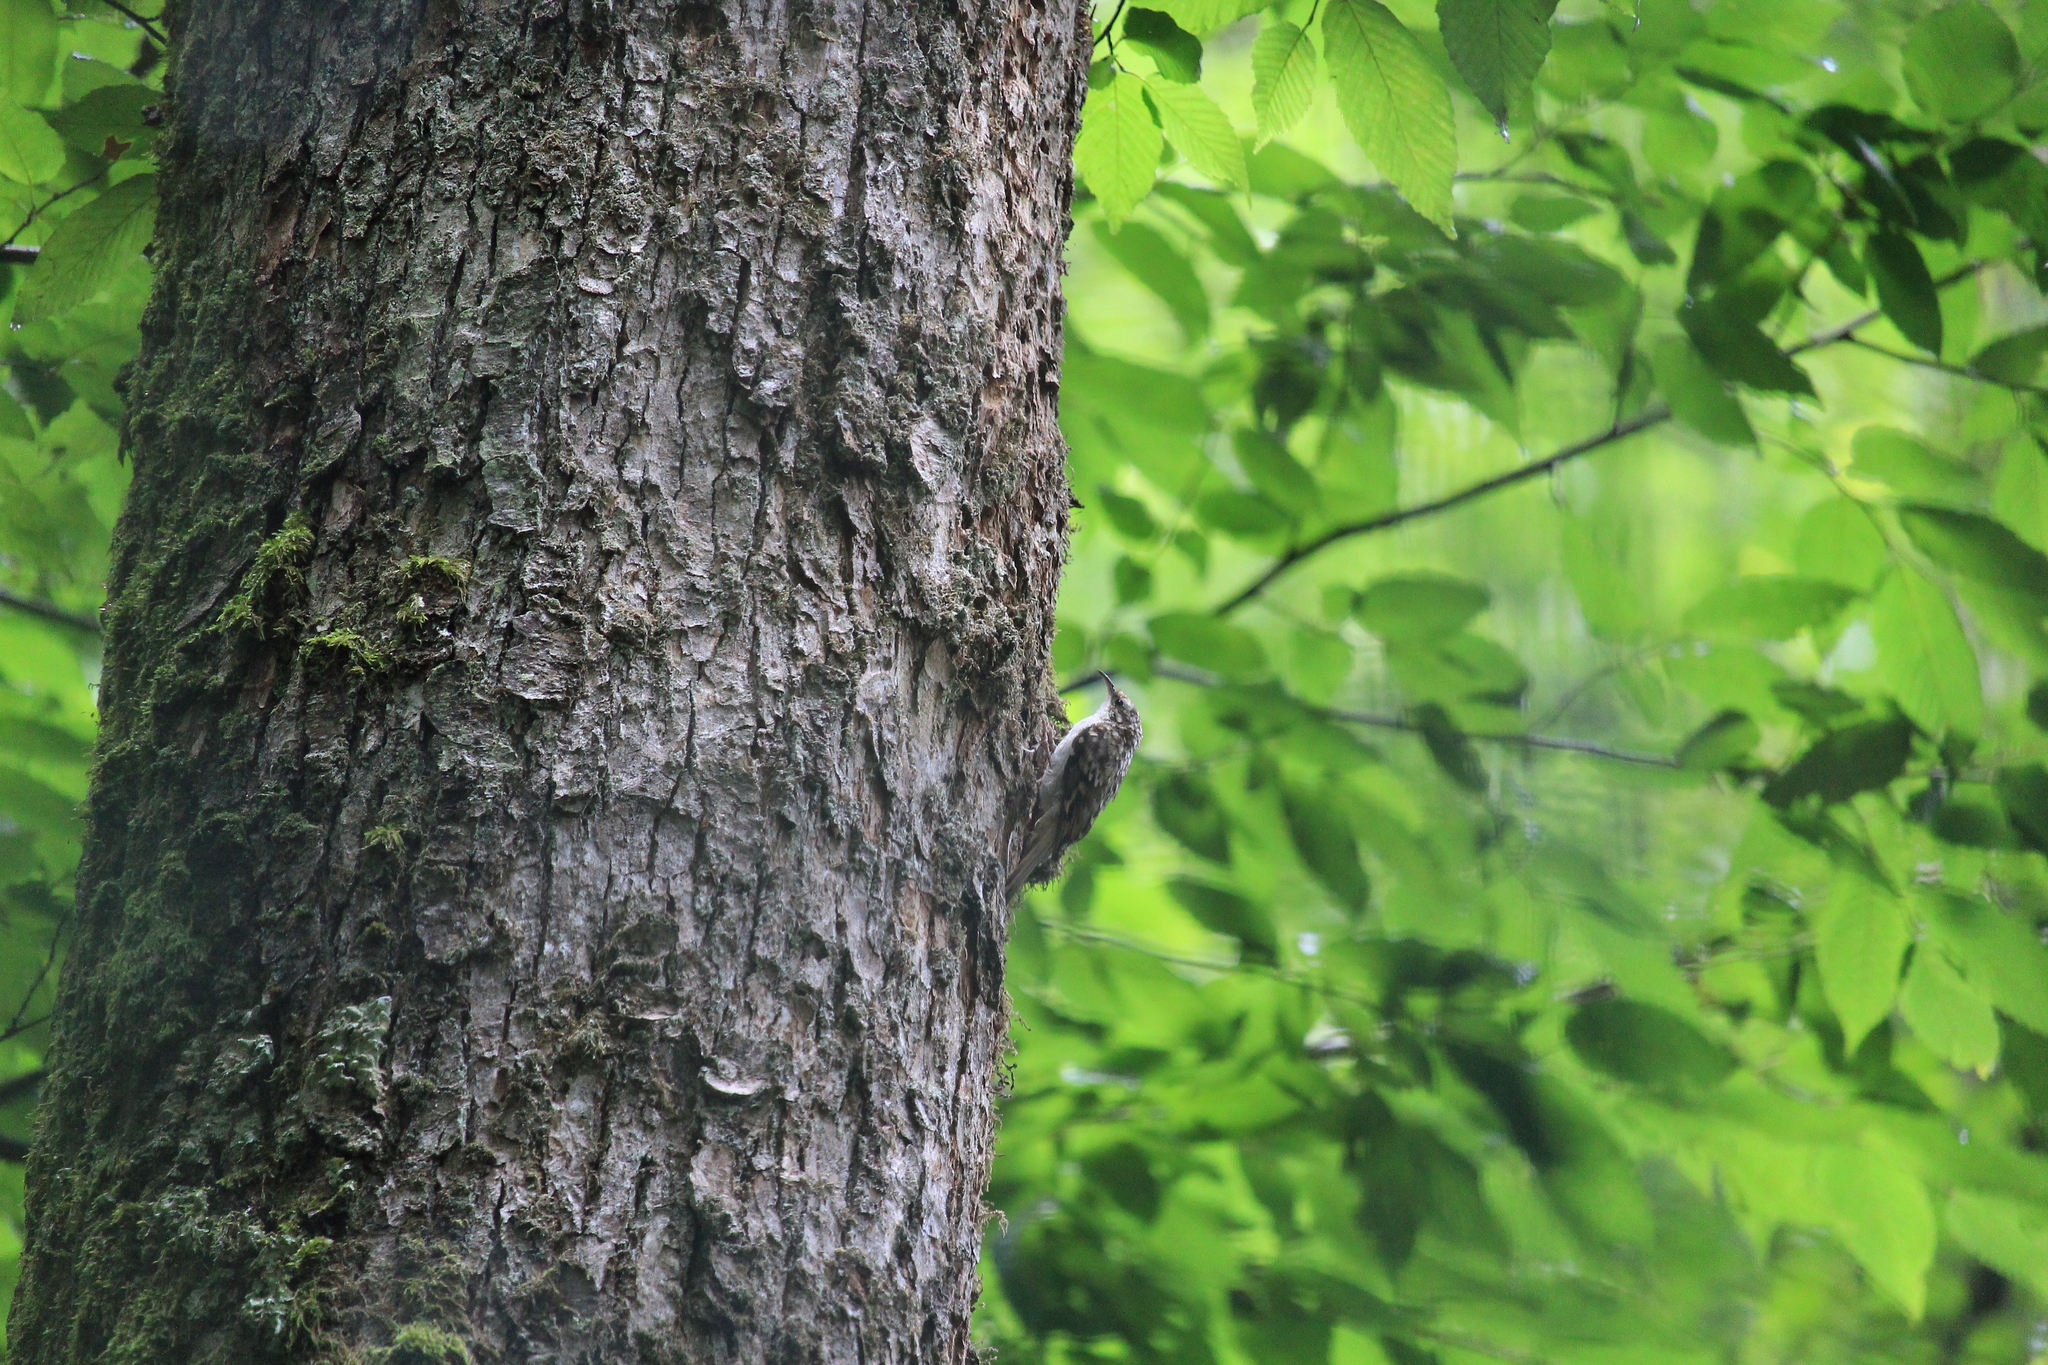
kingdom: Animalia
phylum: Chordata
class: Aves
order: Passeriformes
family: Certhiidae
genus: Certhia
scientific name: Certhia familiaris
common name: Eurasian treecreeper
